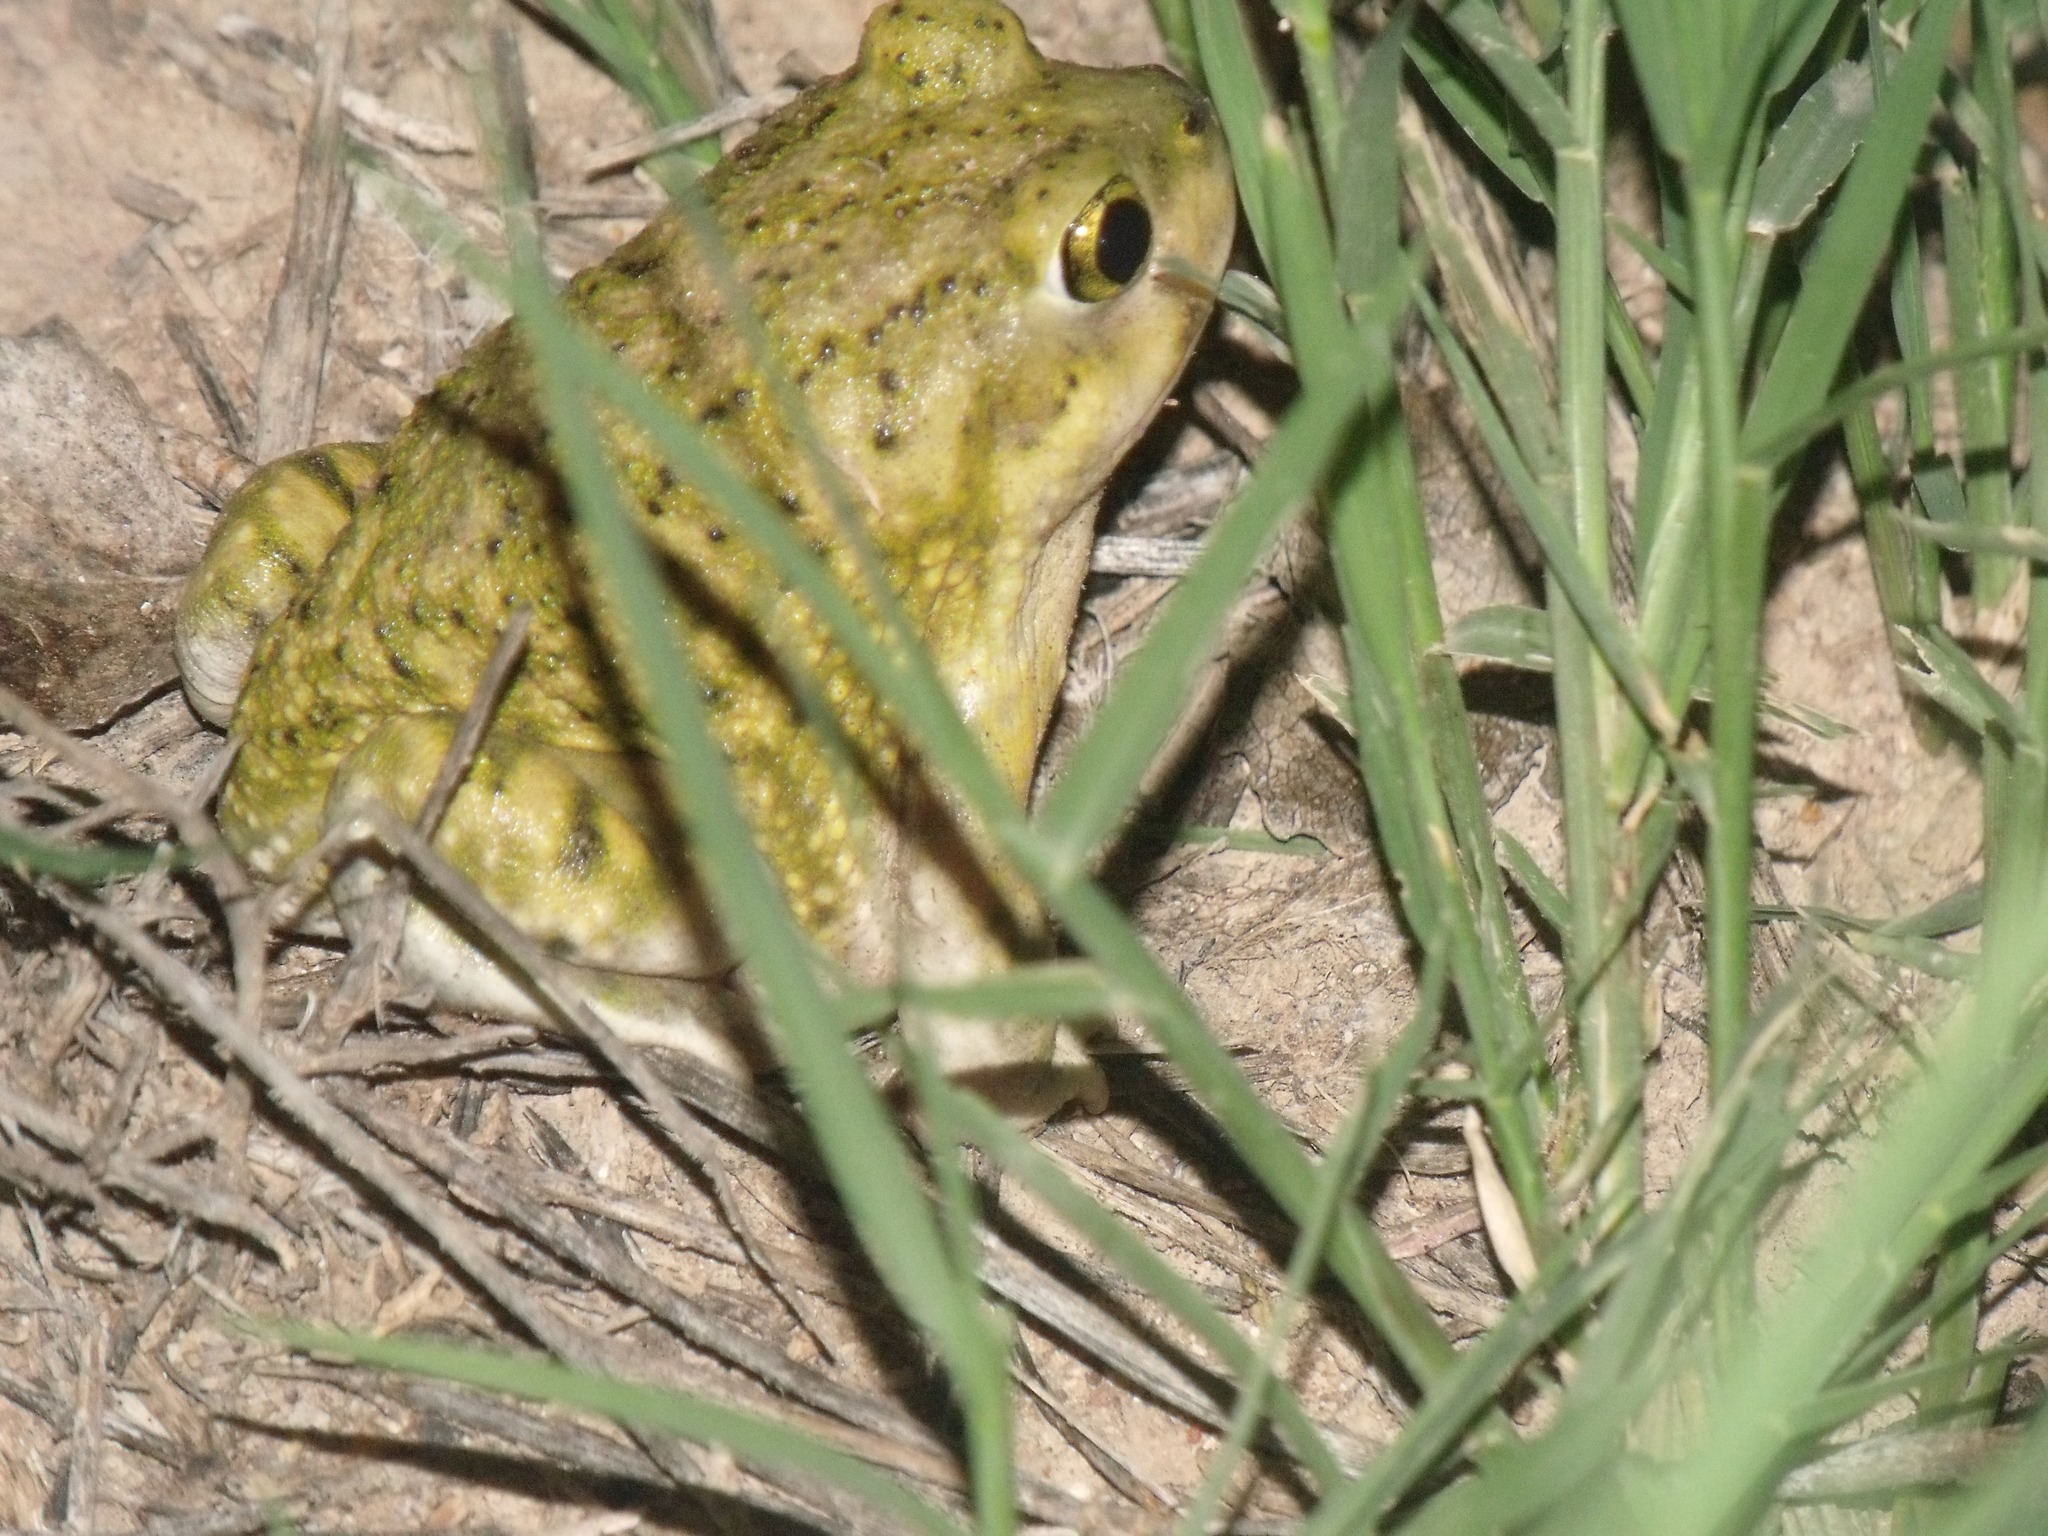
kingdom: Animalia
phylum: Chordata
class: Amphibia
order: Anura
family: Scaphiopodidae
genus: Scaphiopus
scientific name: Scaphiopus couchii
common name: Couch's spadefoot toad
